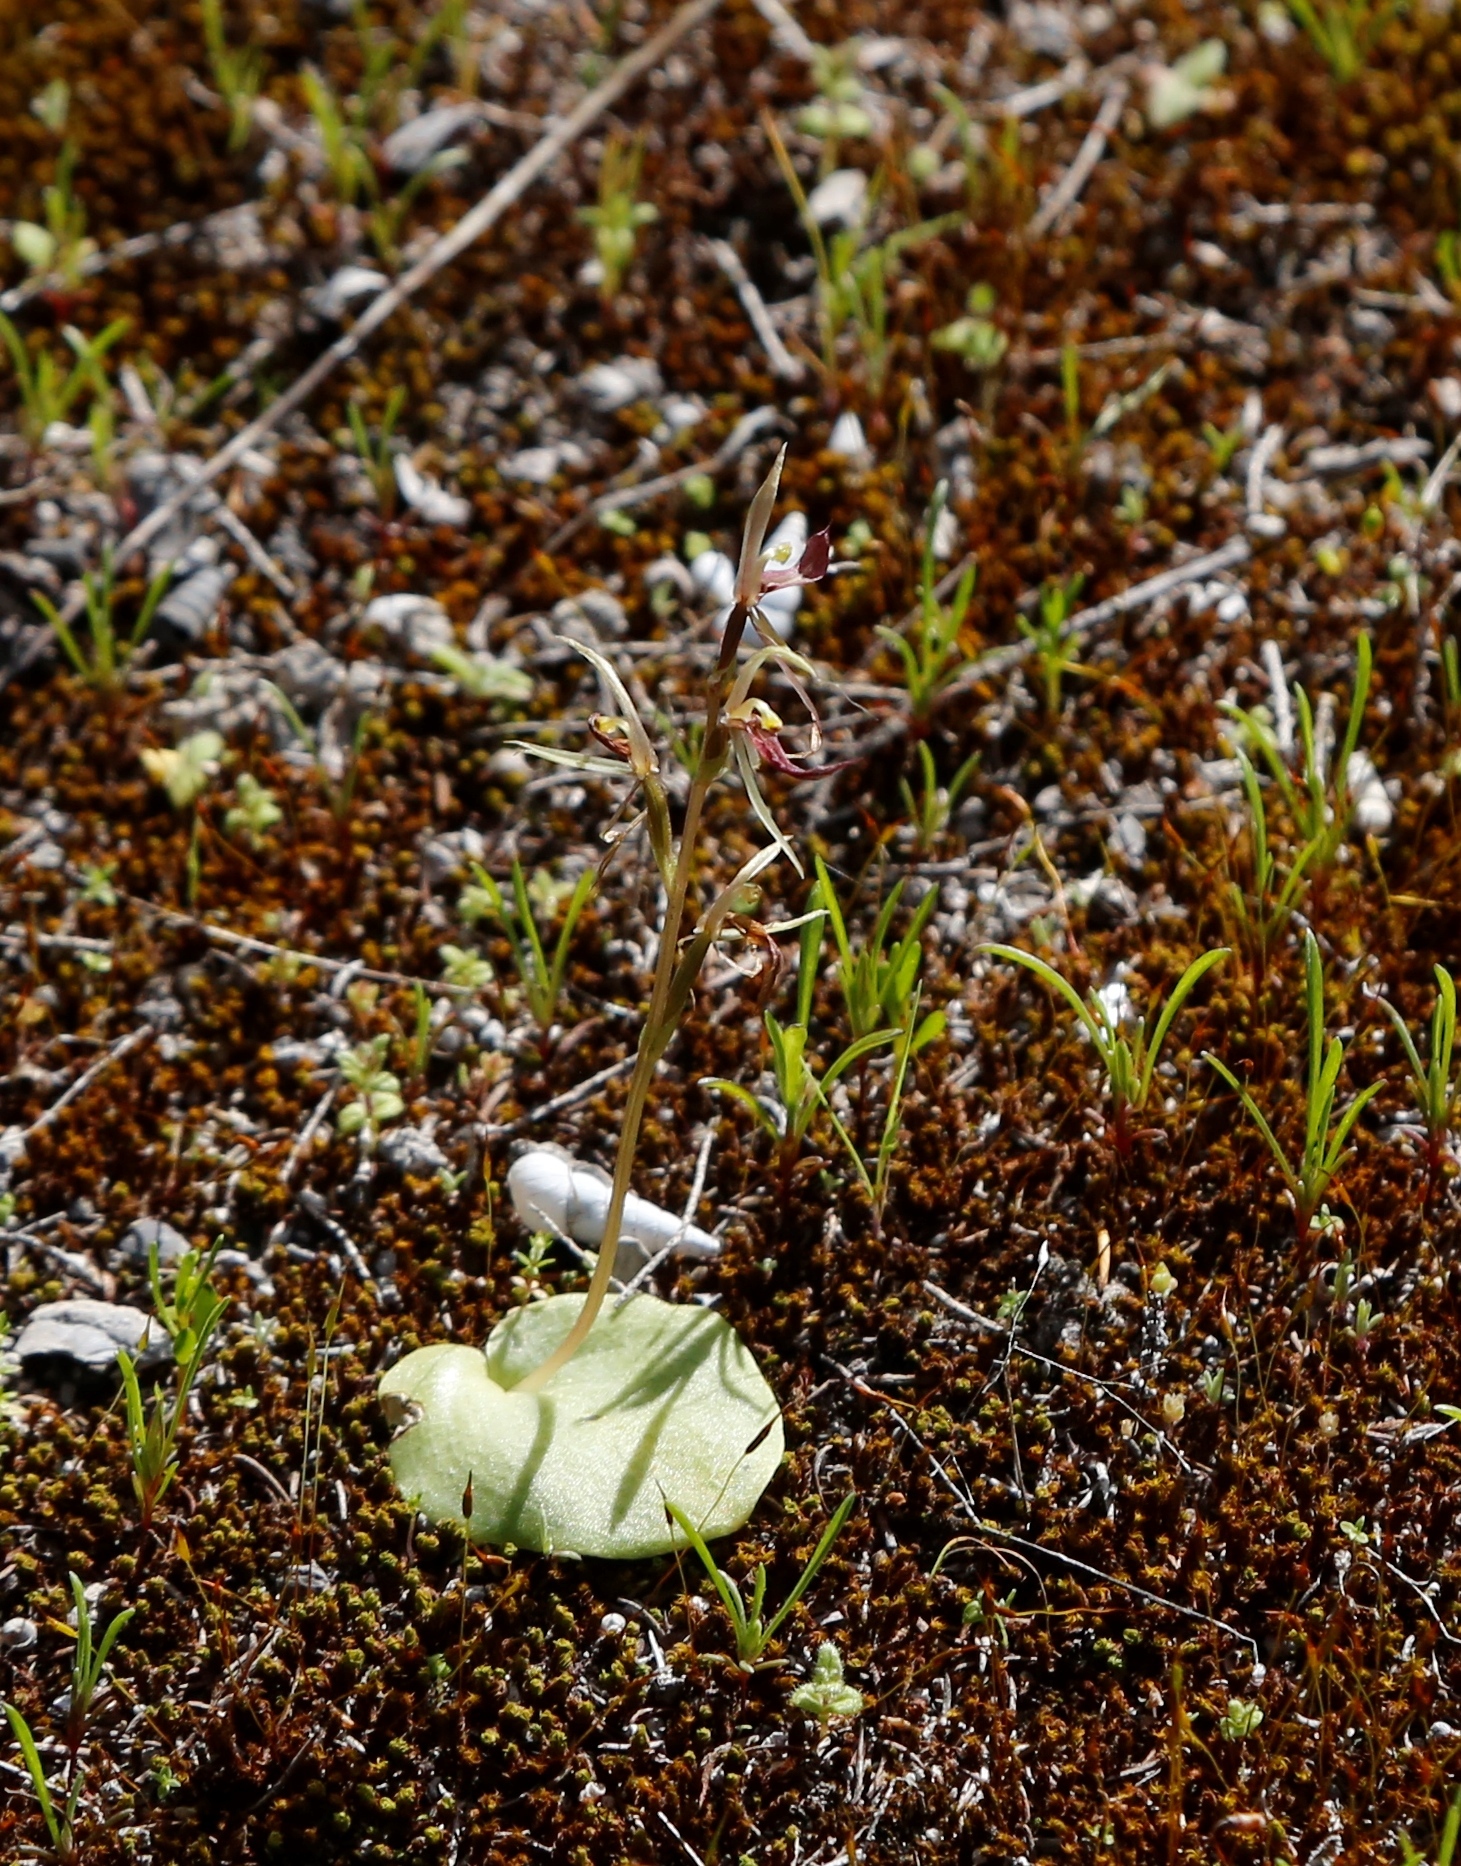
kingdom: Plantae
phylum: Tracheophyta
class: Liliopsida
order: Asparagales
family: Orchidaceae
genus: Cyrtostylis
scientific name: Cyrtostylis huegelii
